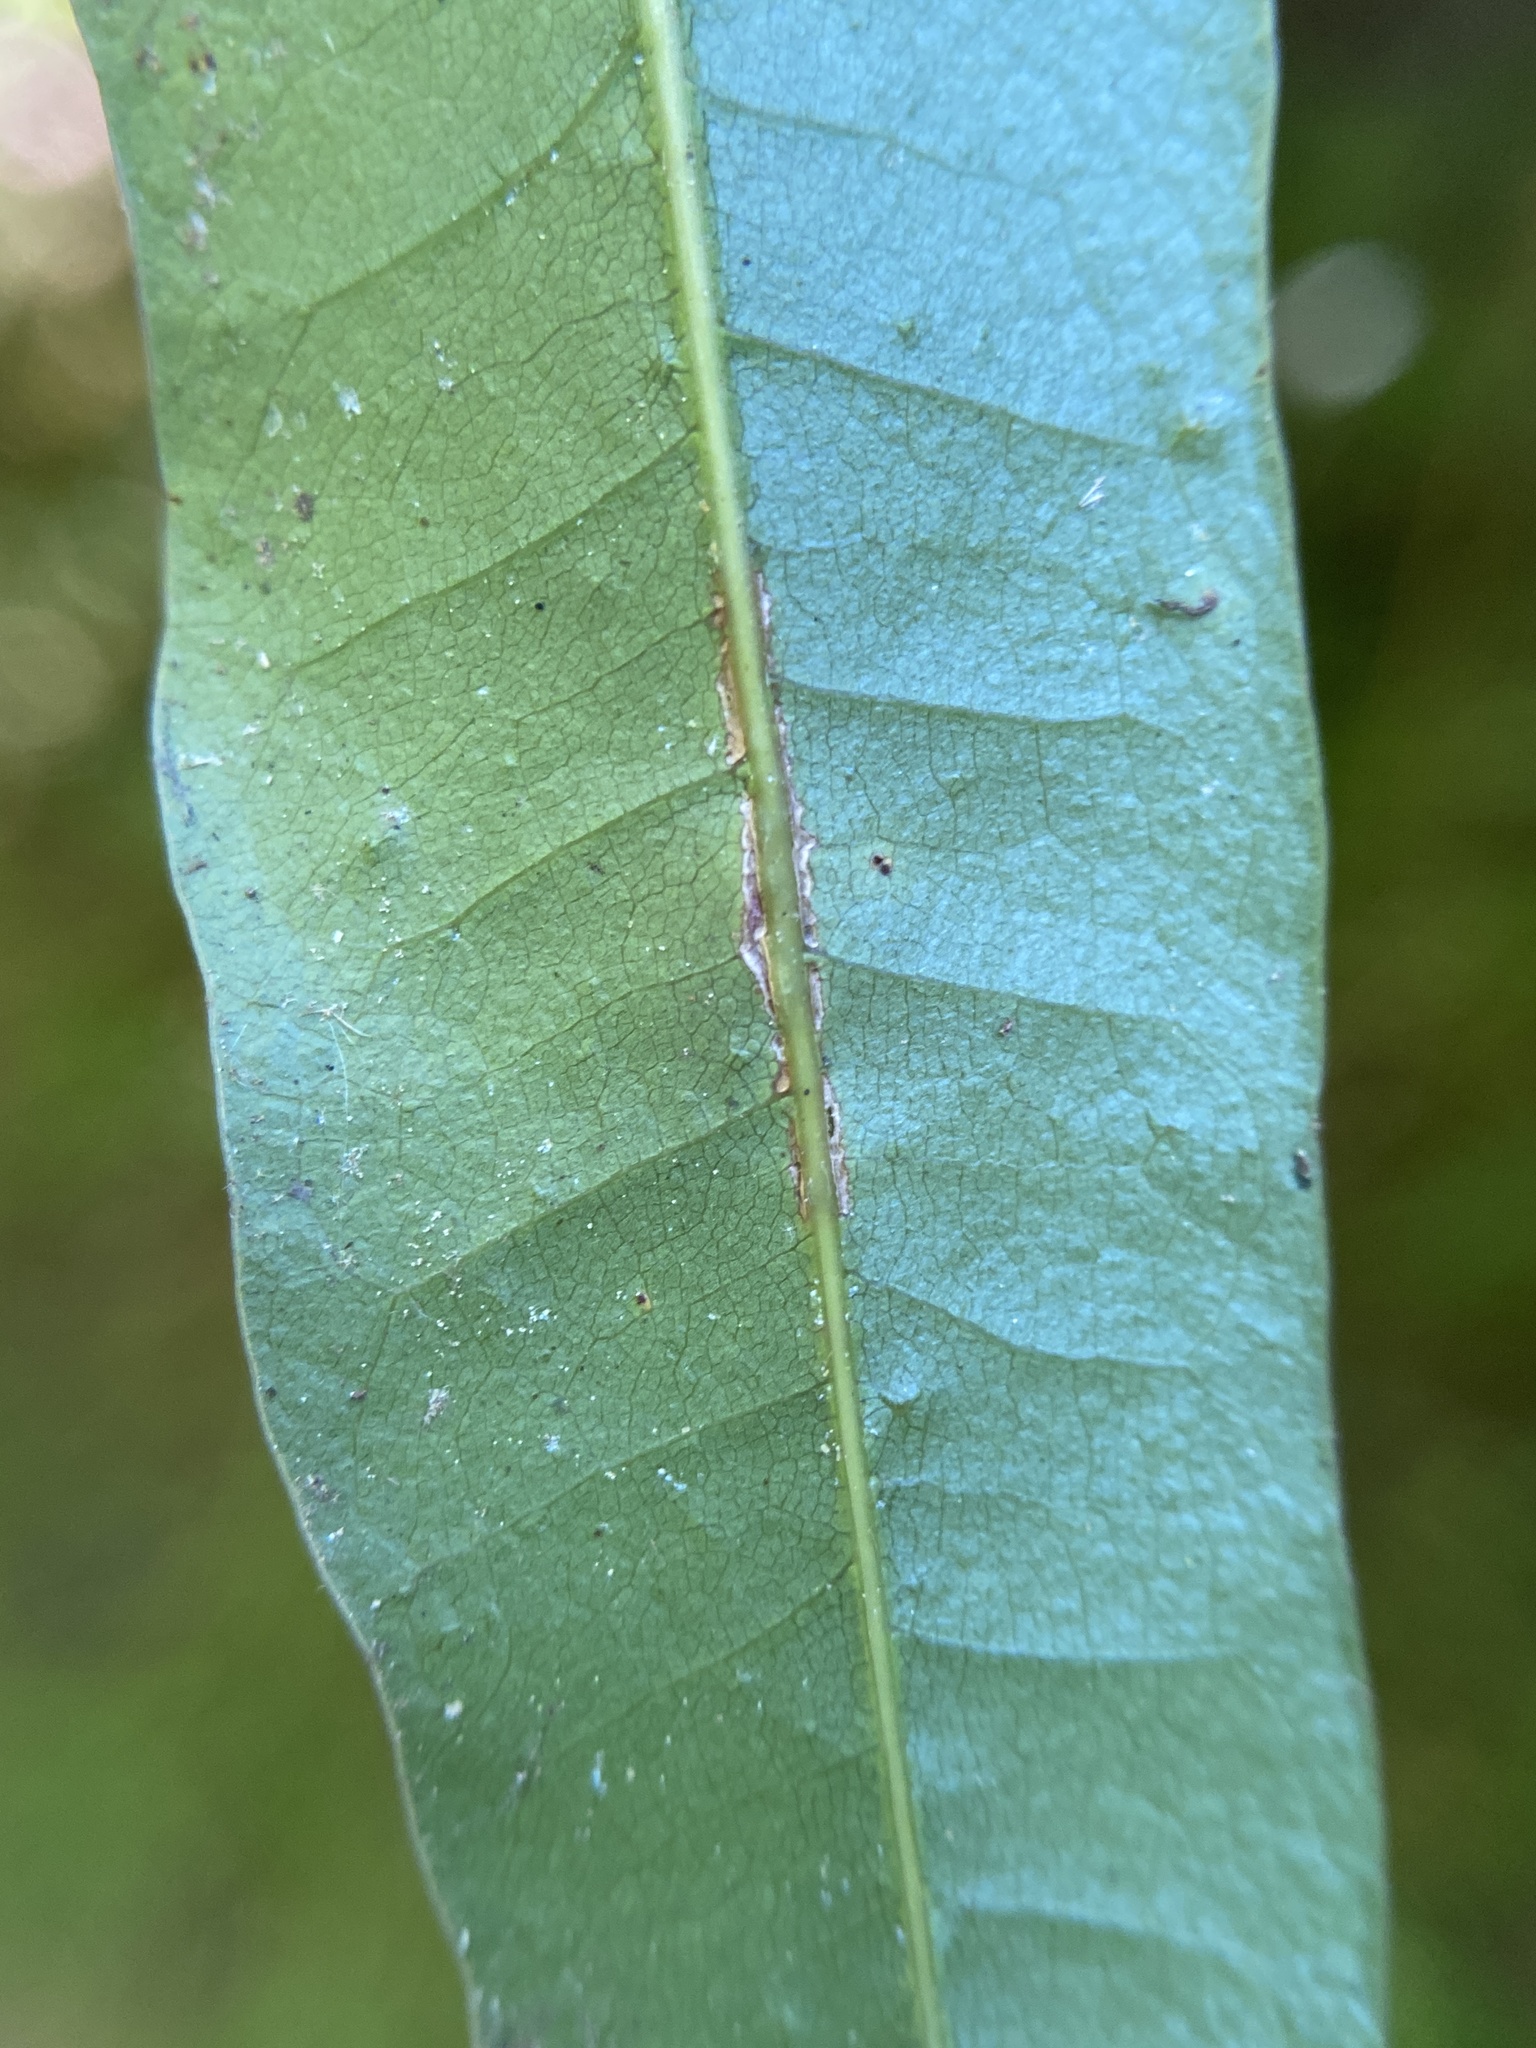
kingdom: Animalia
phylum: Arthropoda
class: Insecta
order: Hymenoptera
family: Cynipidae
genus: Callirhytis
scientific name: Callirhytis
